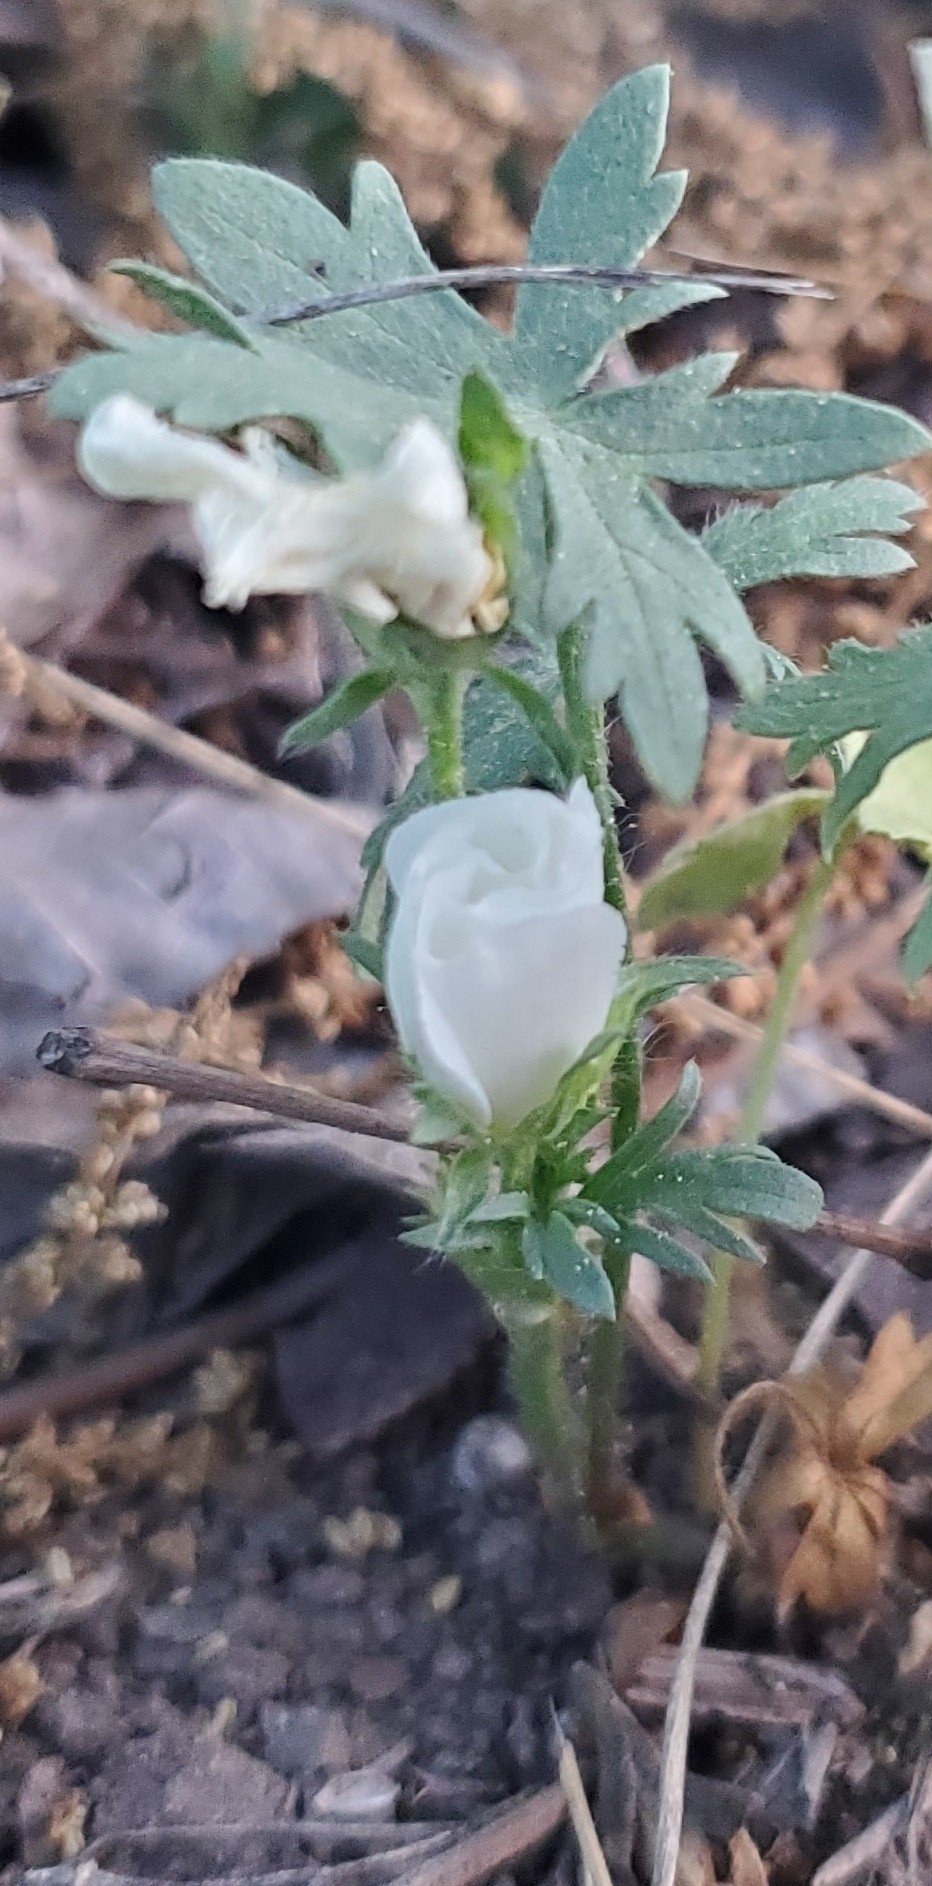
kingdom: Plantae
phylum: Tracheophyta
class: Magnoliopsida
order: Malvales
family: Malvaceae
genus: Callirhoe
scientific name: Callirhoe involucrata
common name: Purple poppy-mallow
